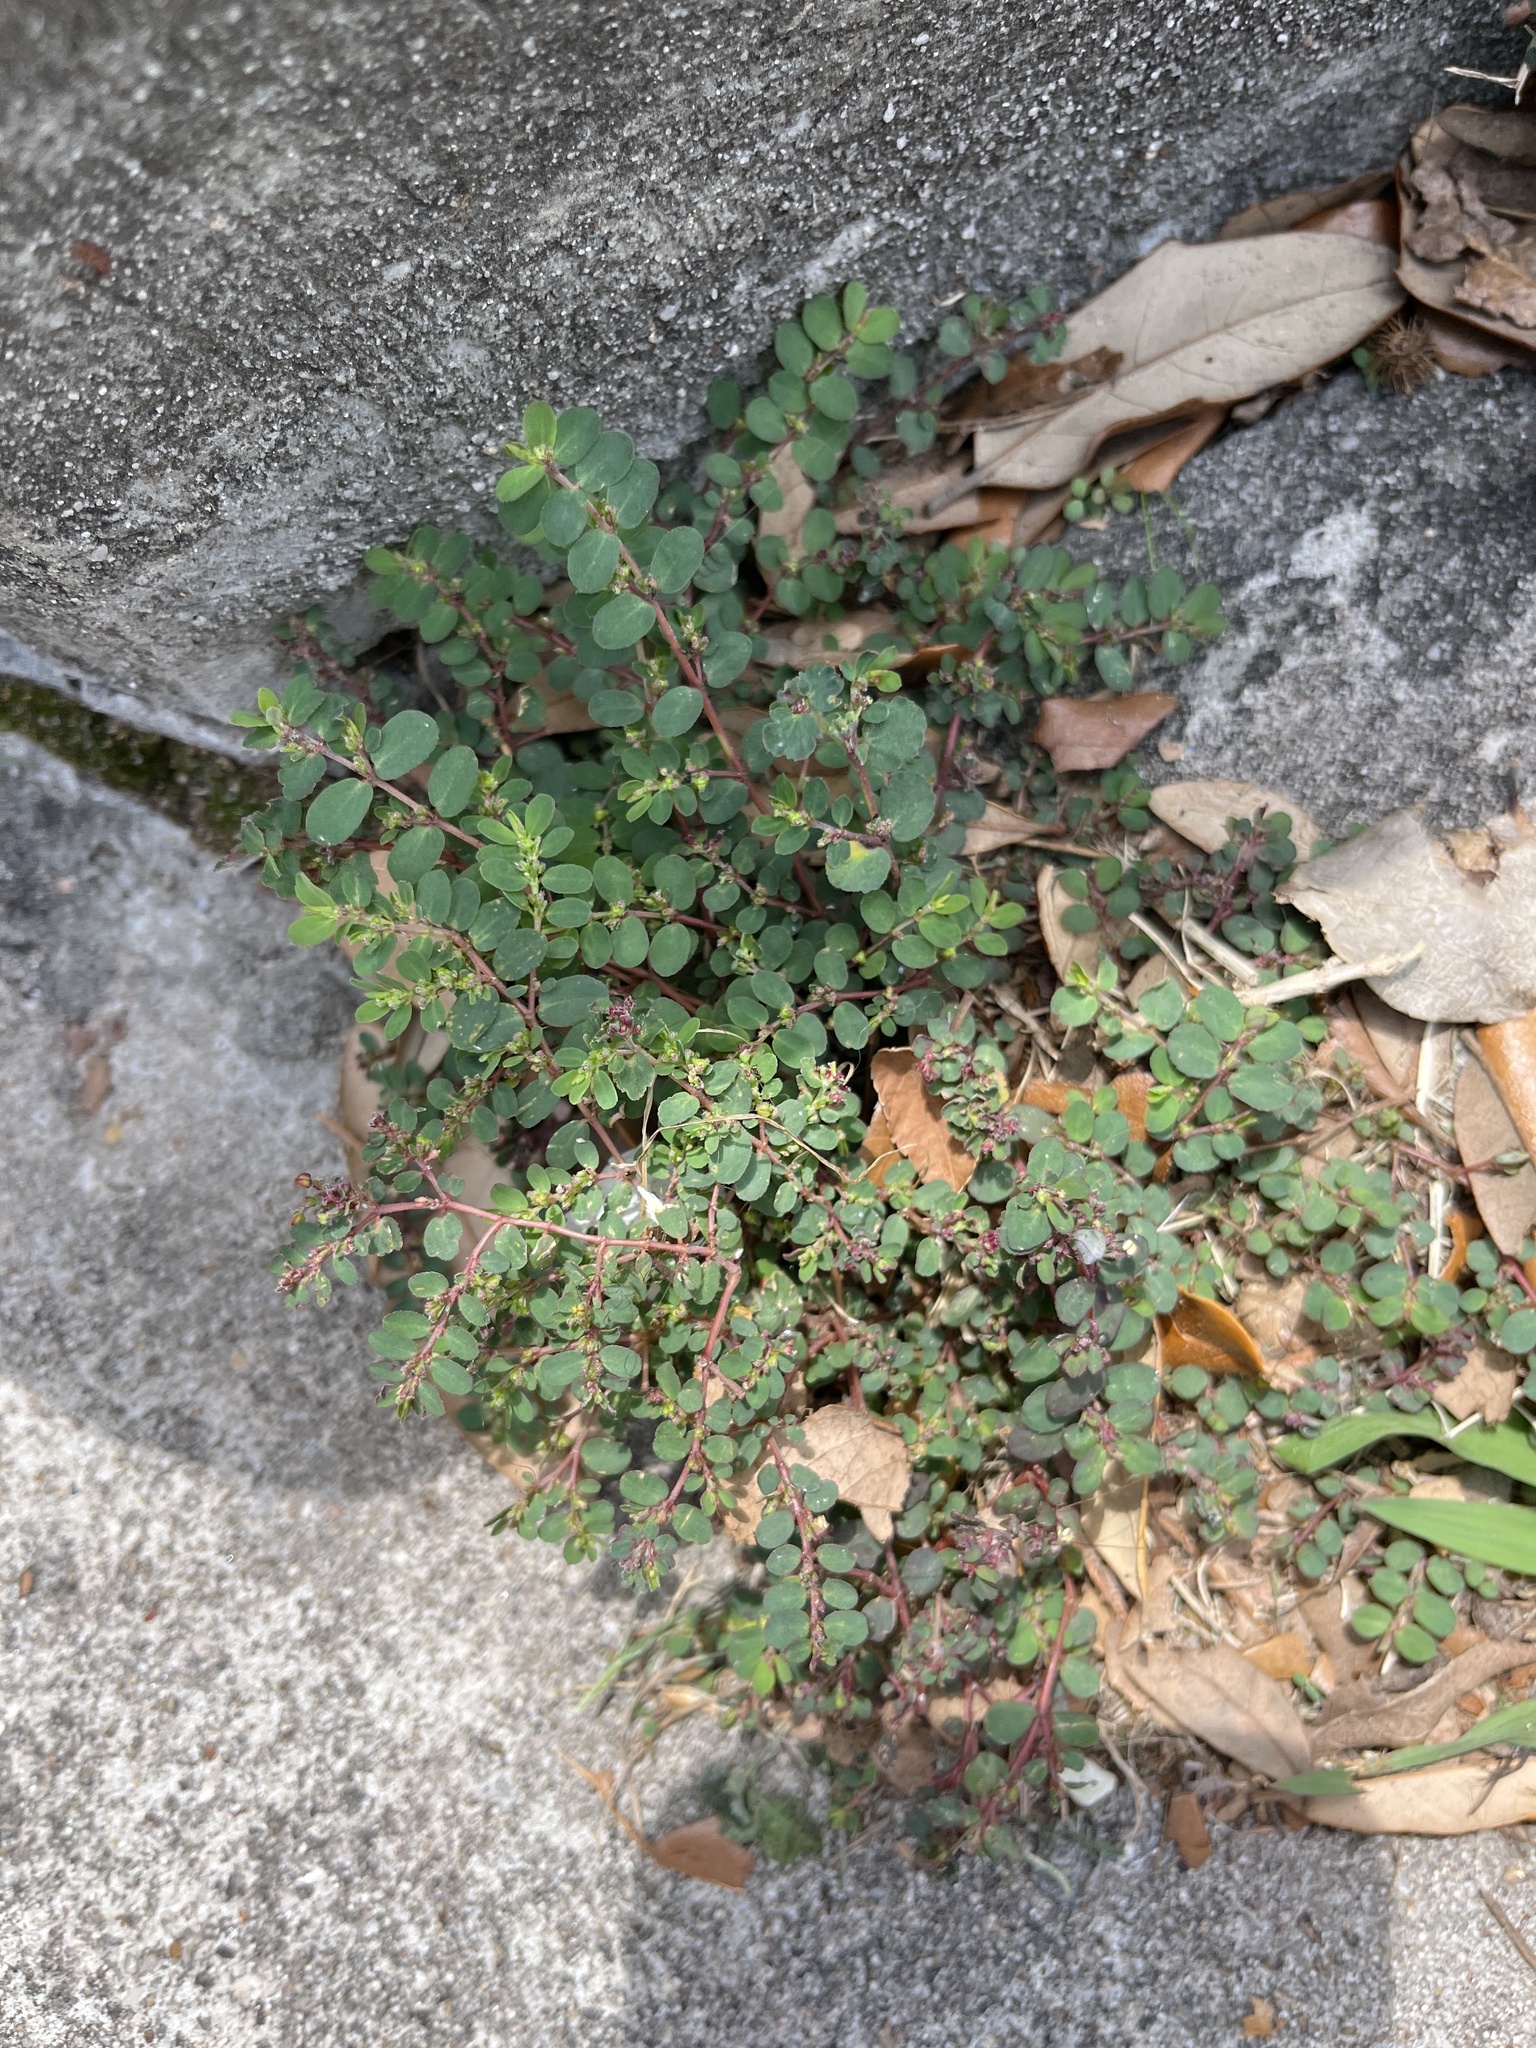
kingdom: Plantae
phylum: Tracheophyta
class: Magnoliopsida
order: Malpighiales
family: Euphorbiaceae
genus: Euphorbia
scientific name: Euphorbia prostrata
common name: Prostrate sandmat
